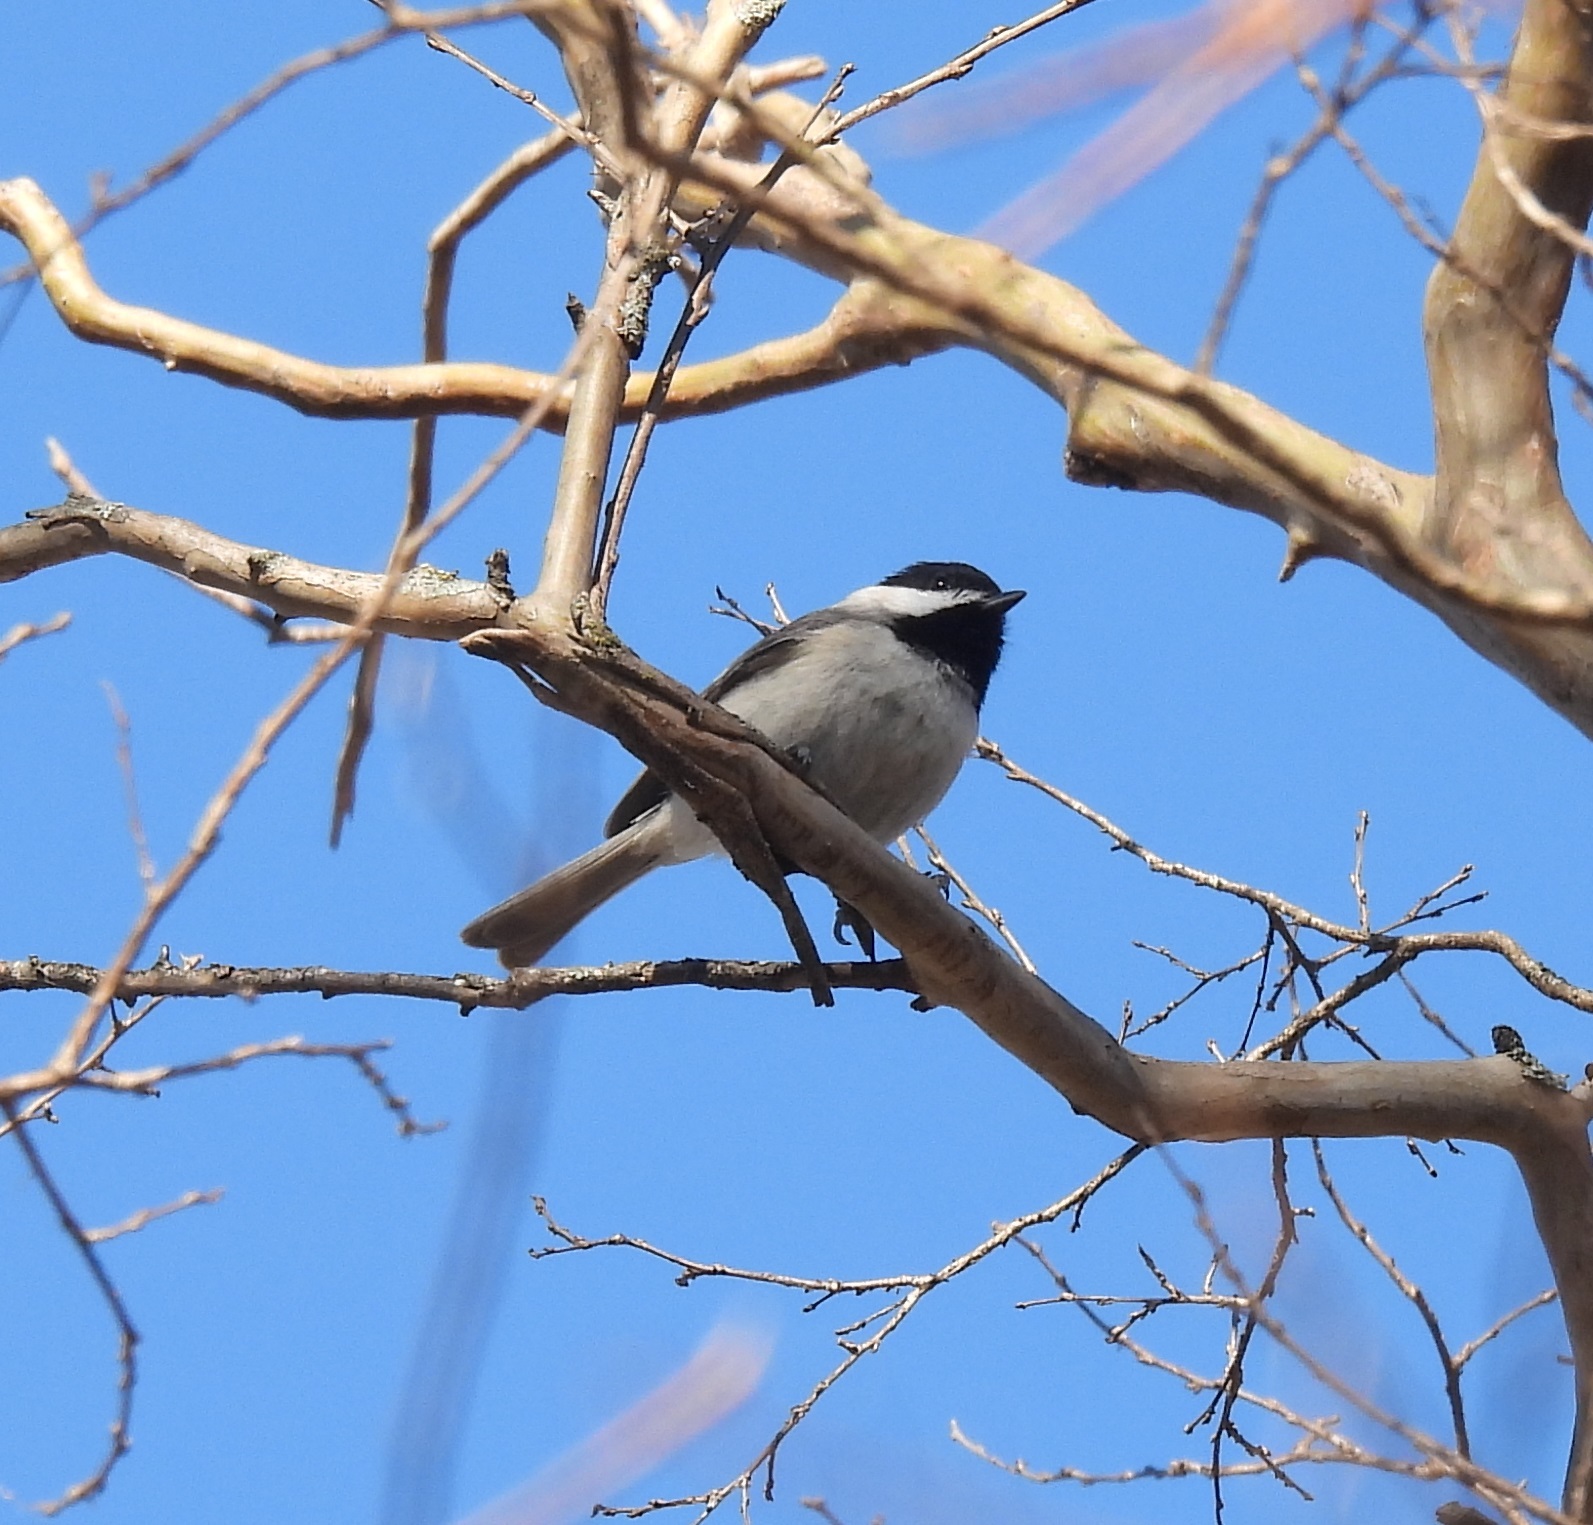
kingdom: Animalia
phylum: Chordata
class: Aves
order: Passeriformes
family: Paridae
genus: Poecile
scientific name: Poecile carolinensis
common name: Carolina chickadee
